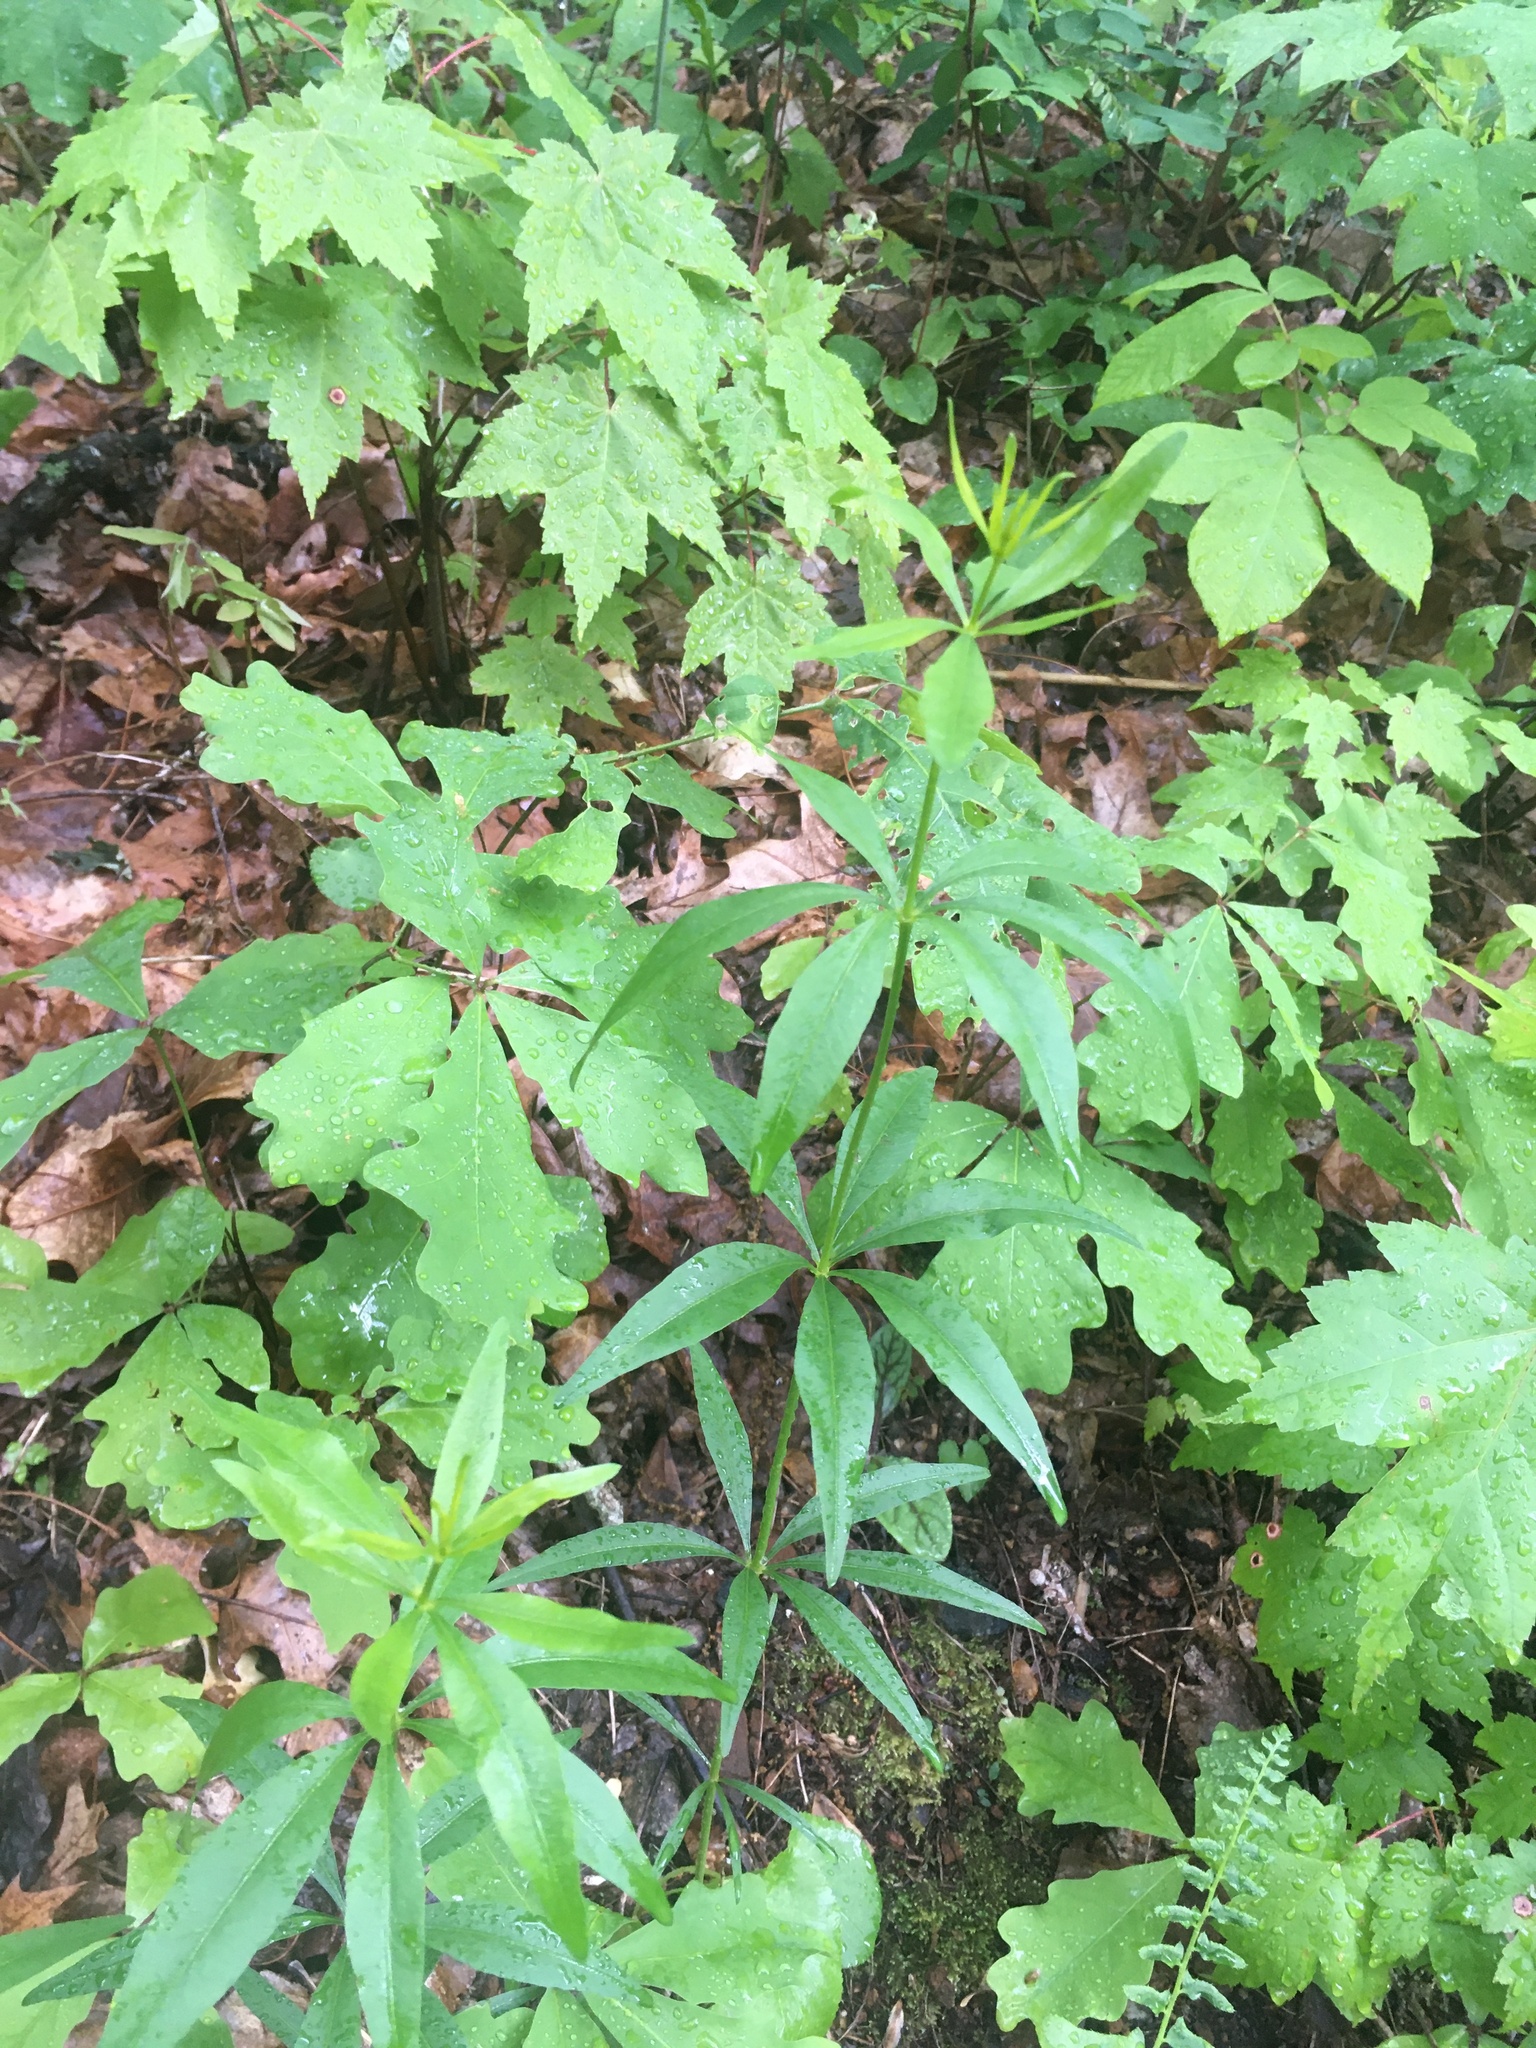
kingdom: Plantae
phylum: Tracheophyta
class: Magnoliopsida
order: Asterales
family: Asteraceae
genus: Coreopsis
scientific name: Coreopsis major
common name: Forest tickseed
